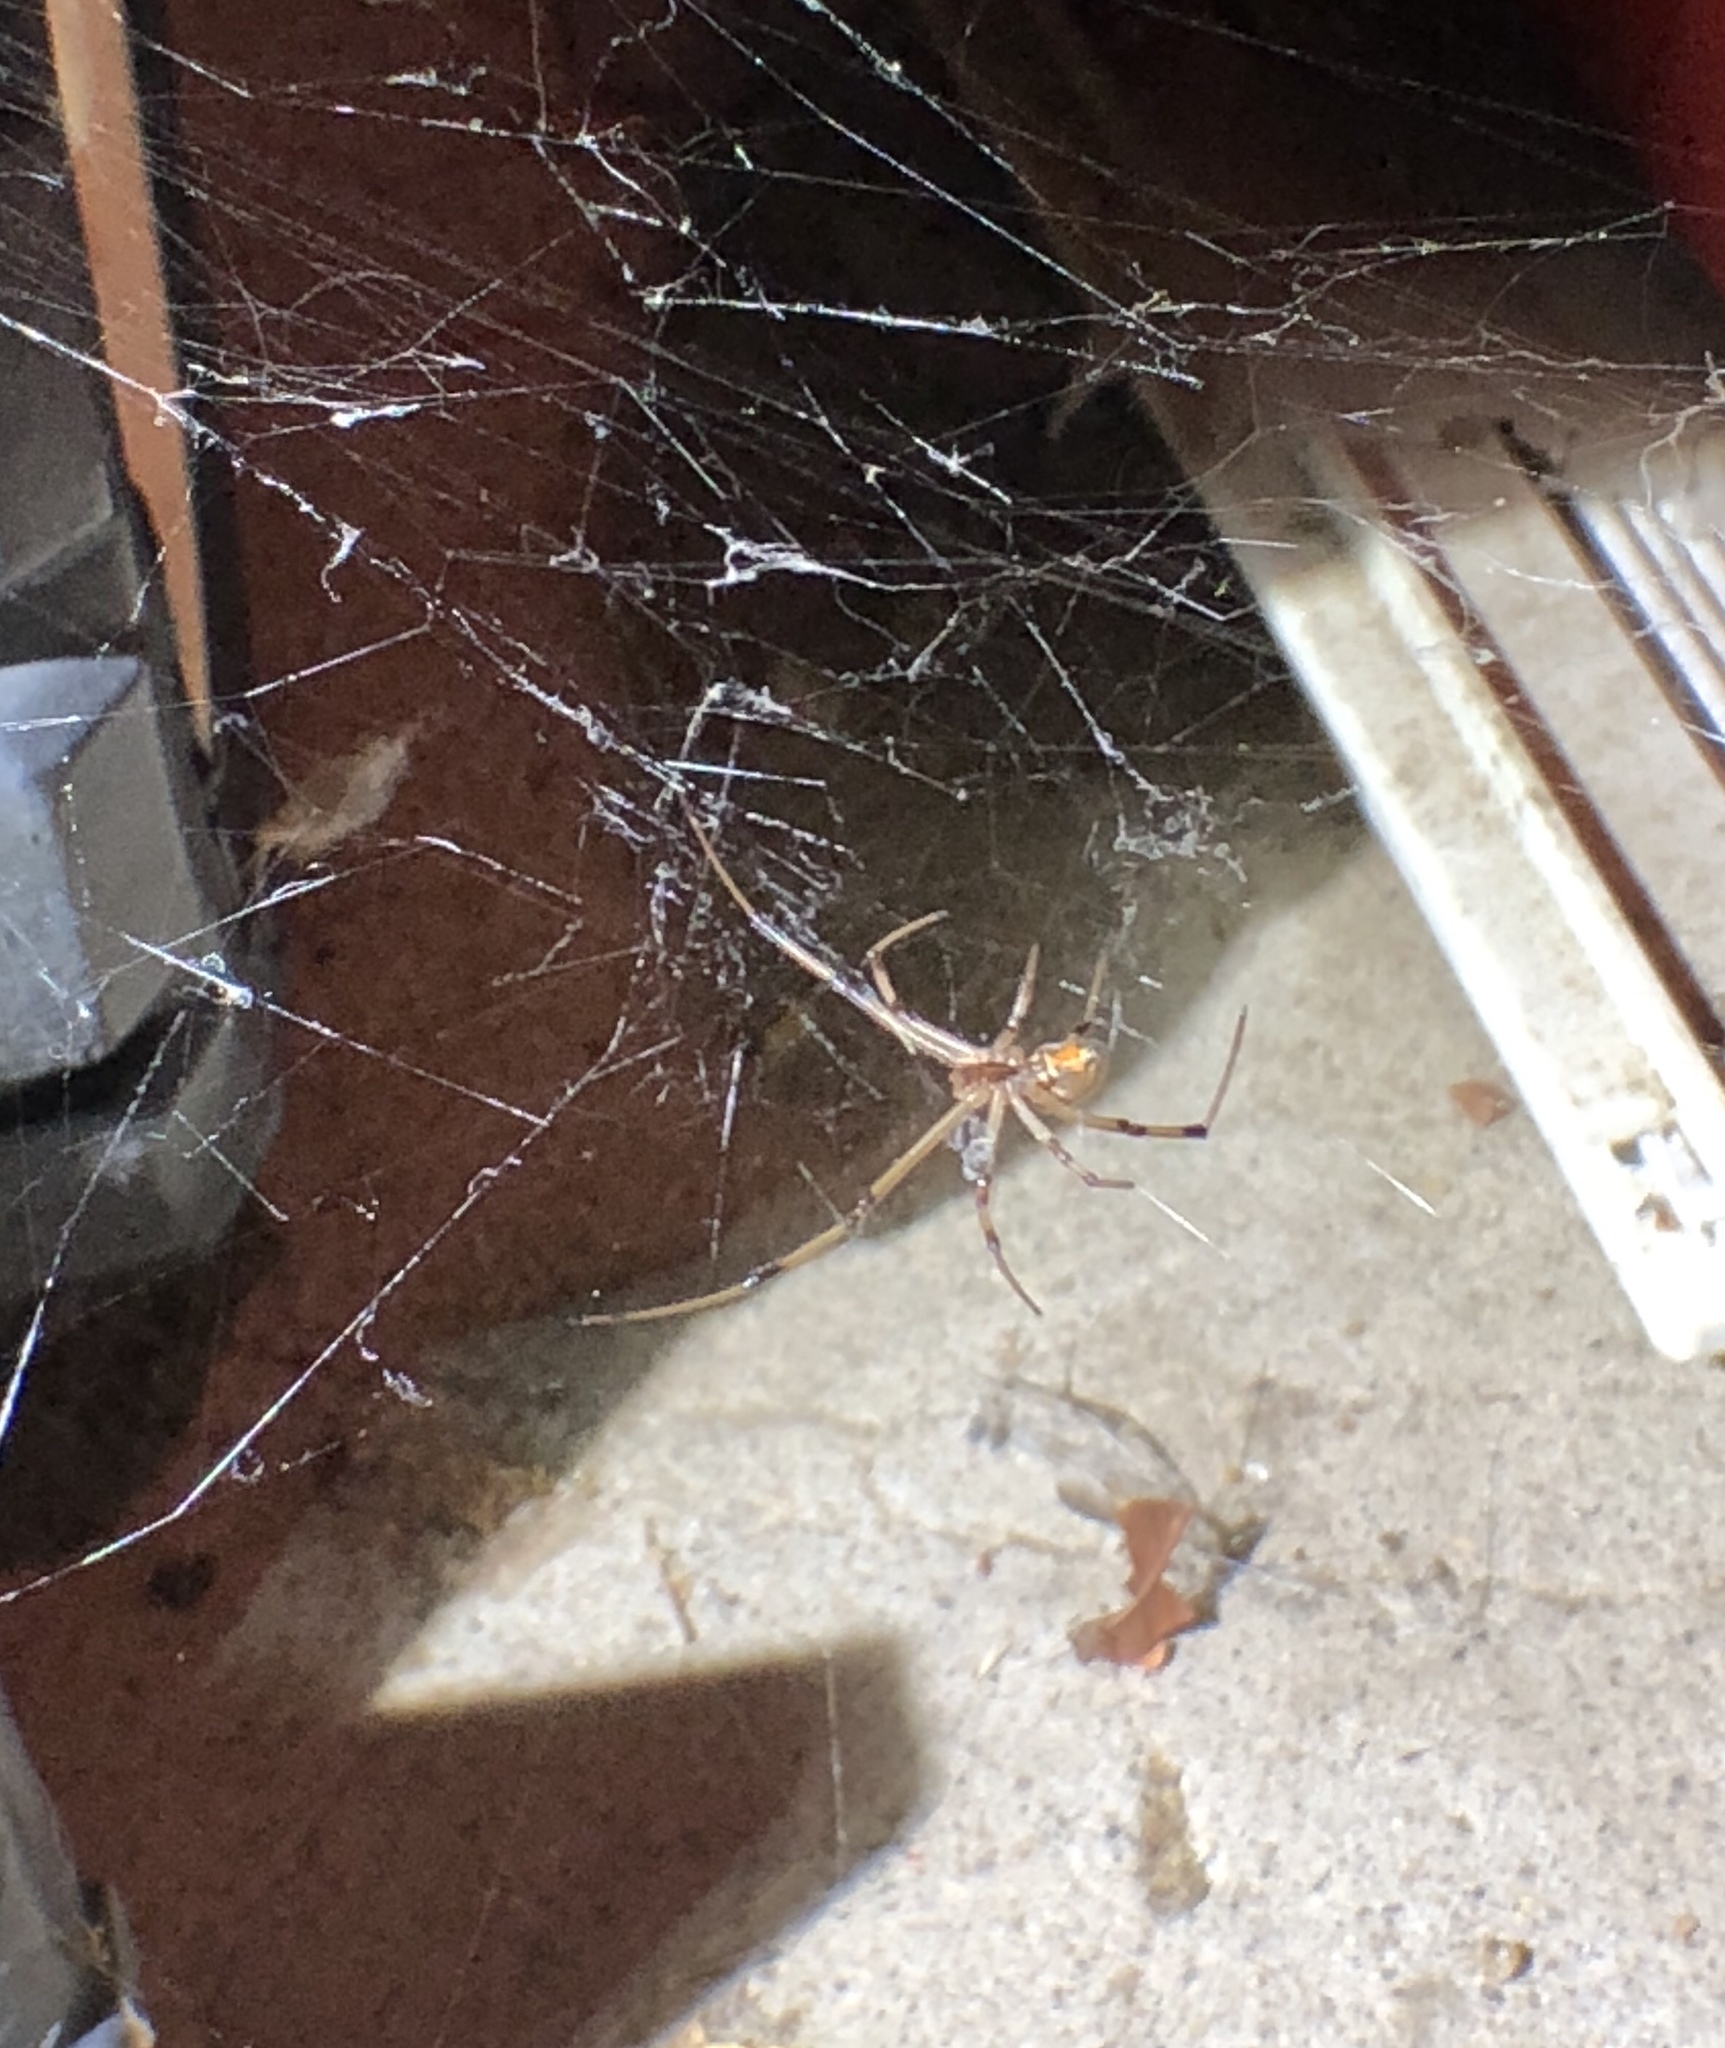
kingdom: Animalia
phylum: Arthropoda
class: Arachnida
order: Araneae
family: Theridiidae
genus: Latrodectus
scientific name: Latrodectus geometricus
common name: Brown widow spider
